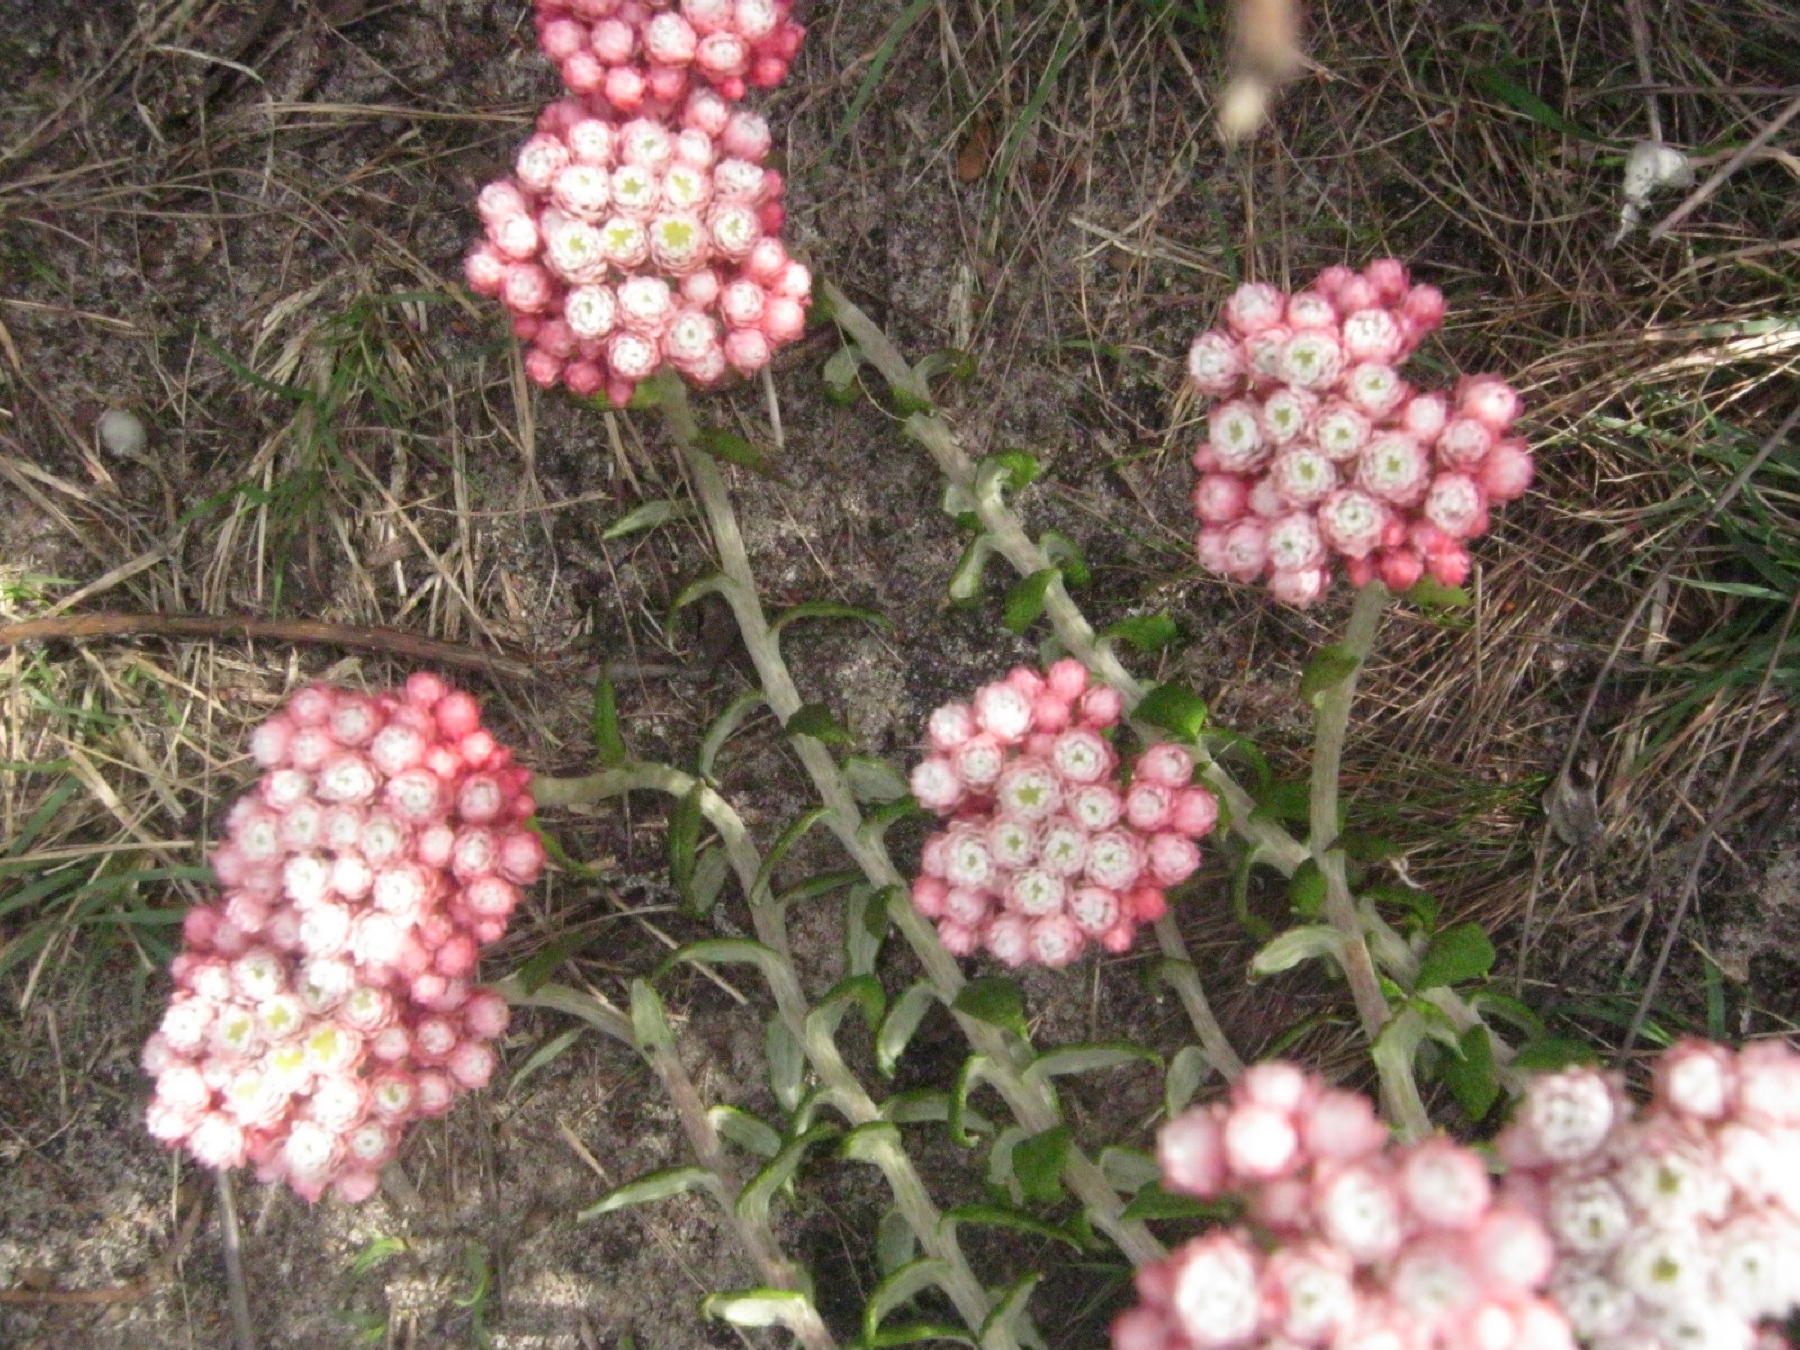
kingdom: Plantae
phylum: Tracheophyta
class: Magnoliopsida
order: Asterales
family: Asteraceae
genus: Helichrysum
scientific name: Helichrysum felinum
